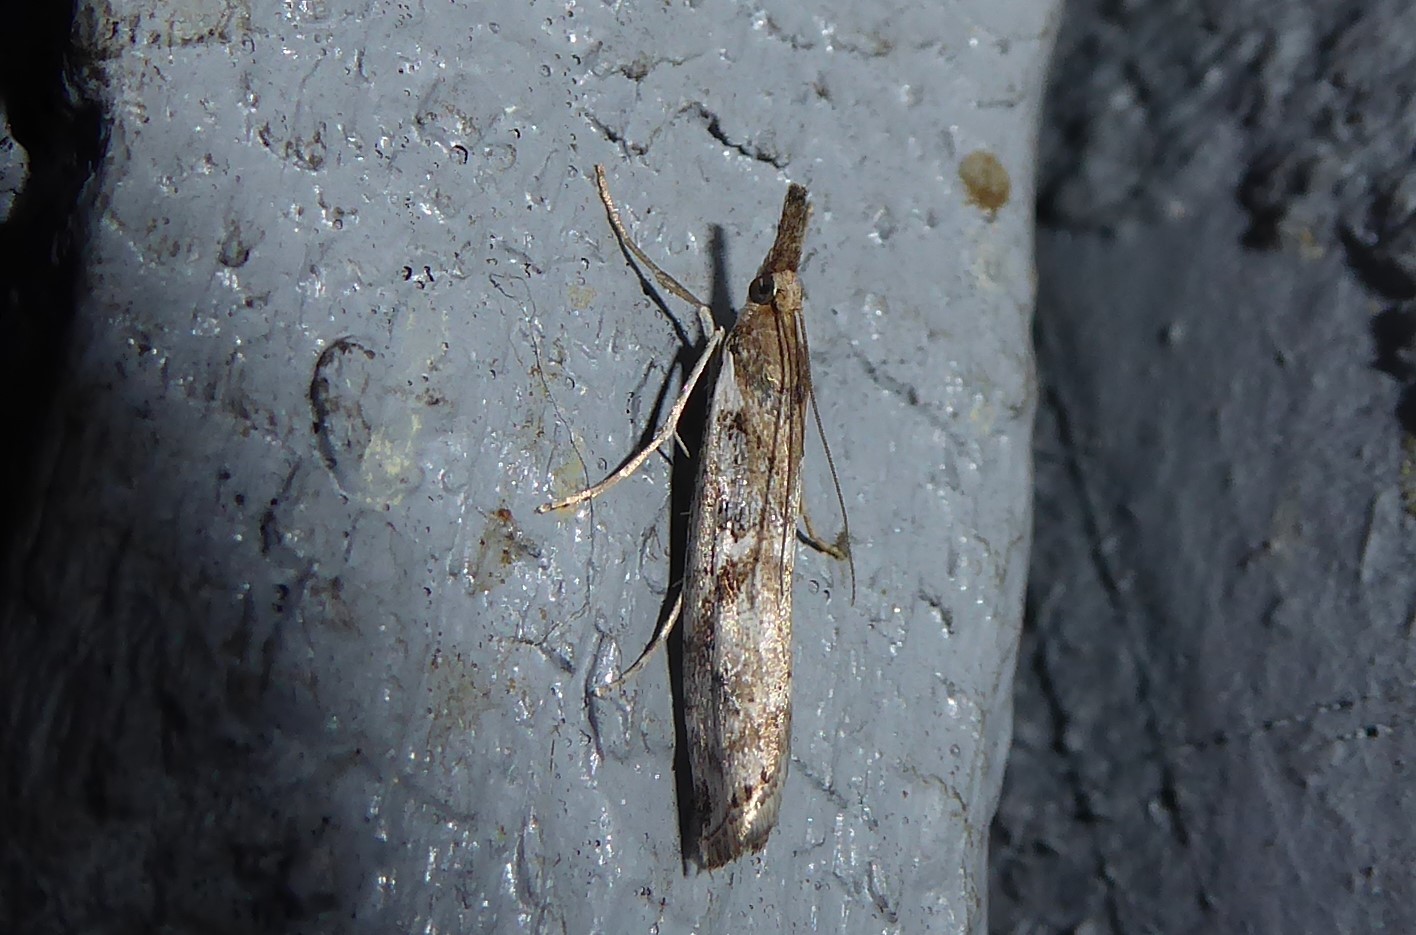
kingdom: Animalia
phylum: Arthropoda
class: Insecta
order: Lepidoptera
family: Crambidae
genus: Orocrambus
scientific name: Orocrambus vulgaris
